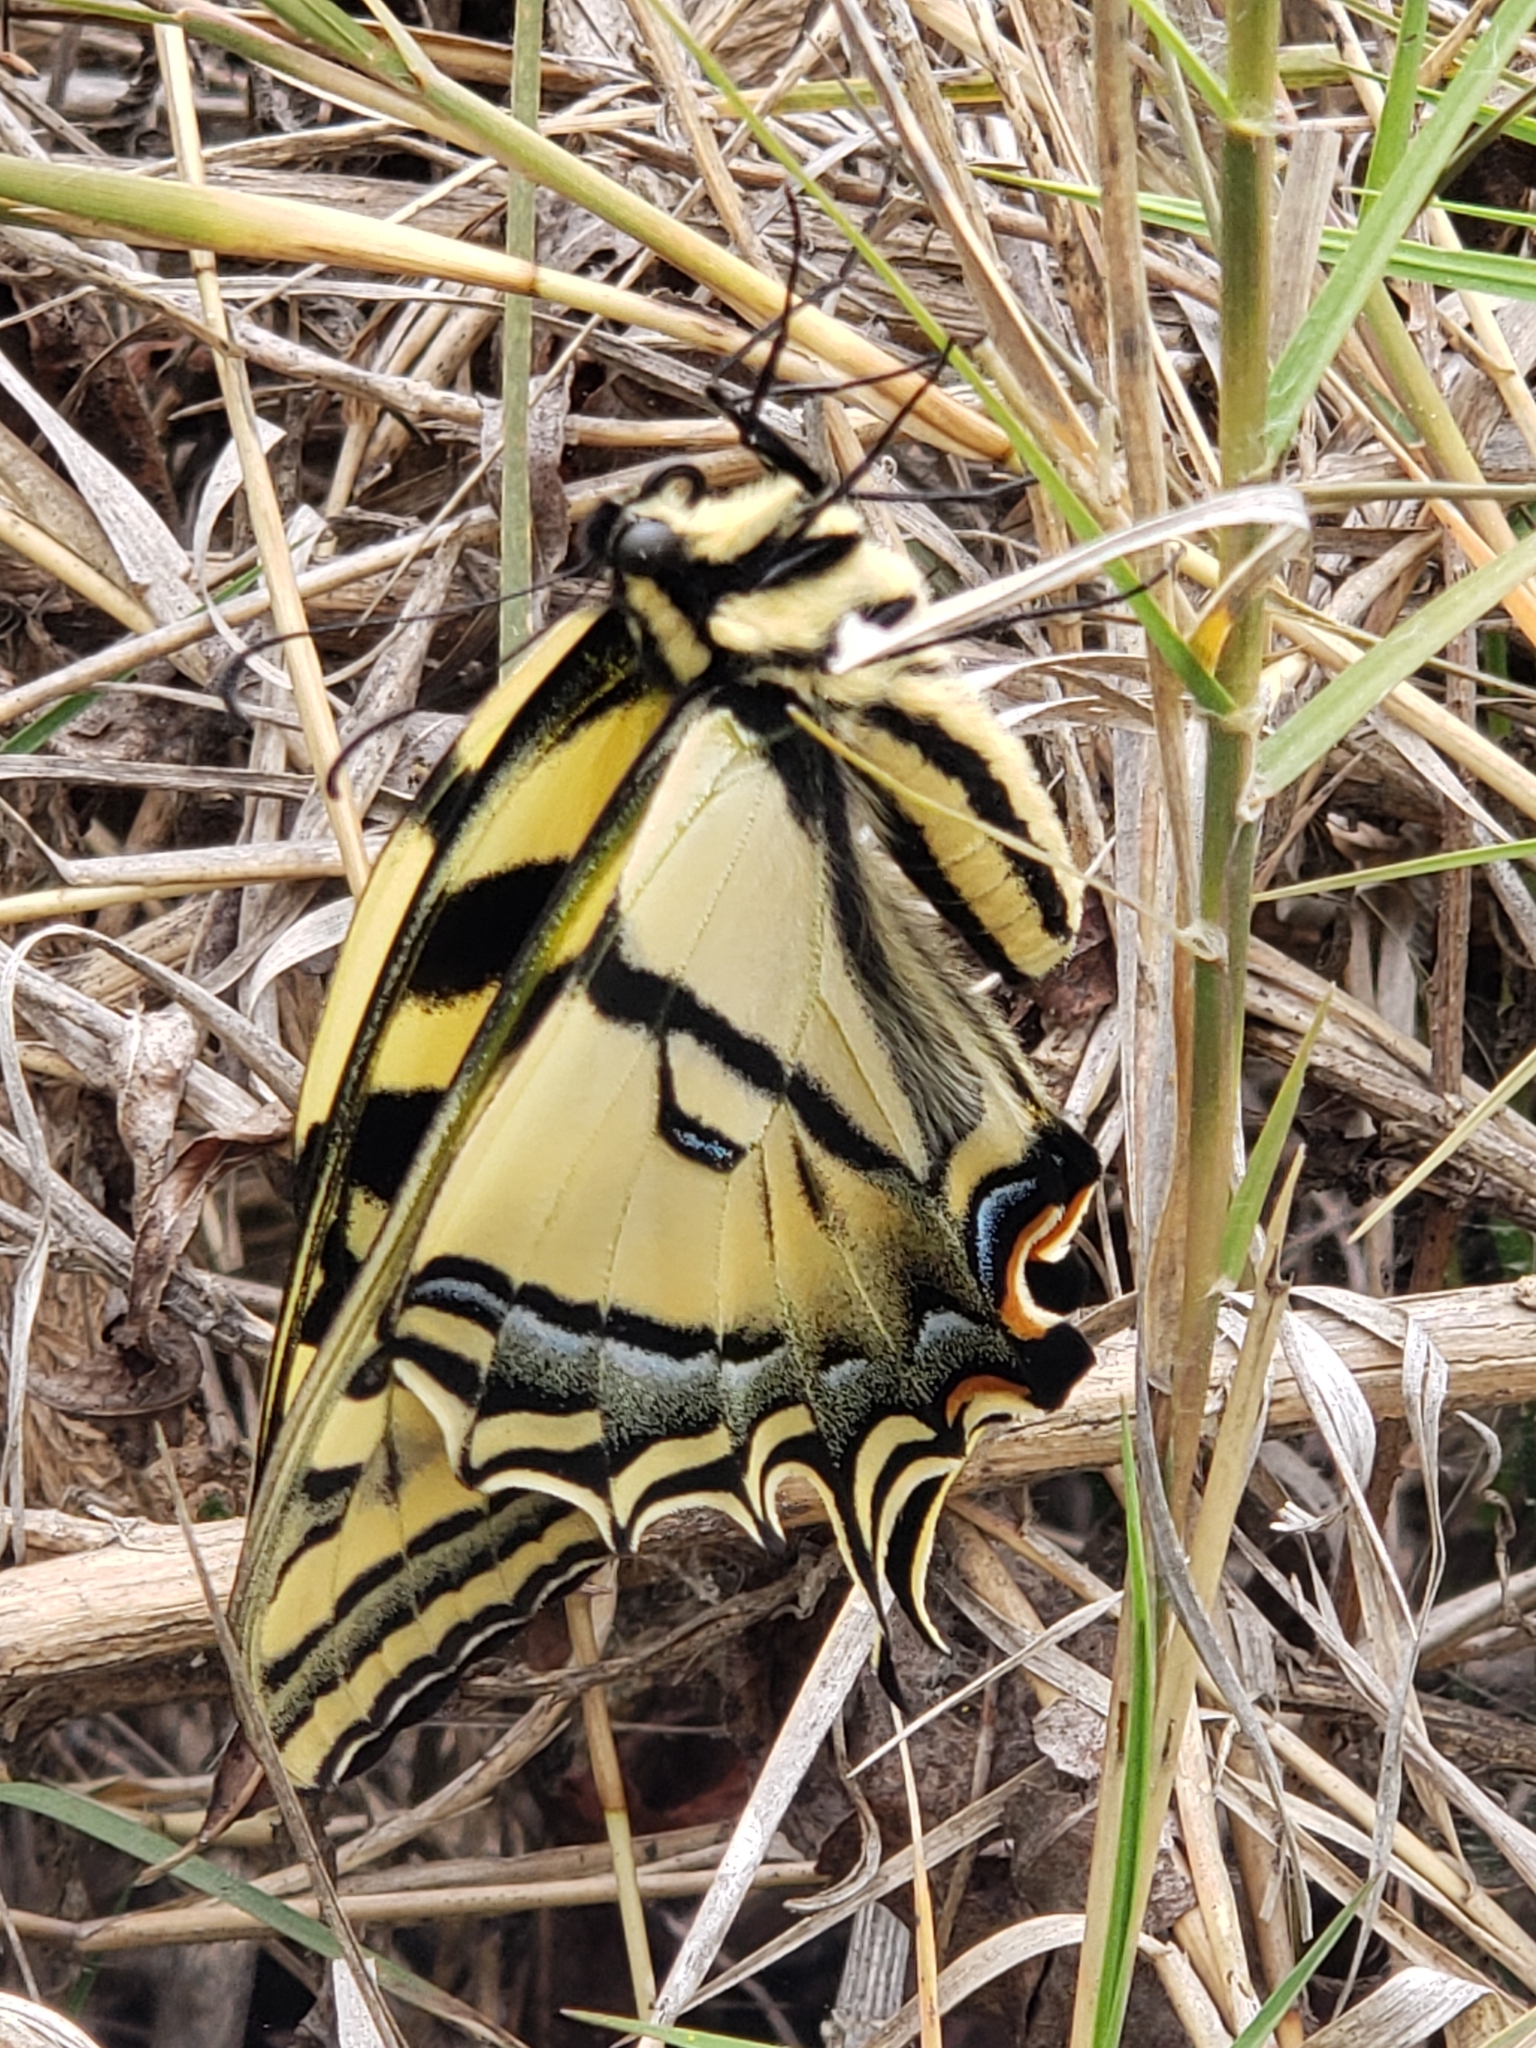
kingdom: Animalia
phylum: Arthropoda
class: Insecta
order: Lepidoptera
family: Papilionidae
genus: Papilio
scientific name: Papilio rutulus
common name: Western tiger swallowtail
